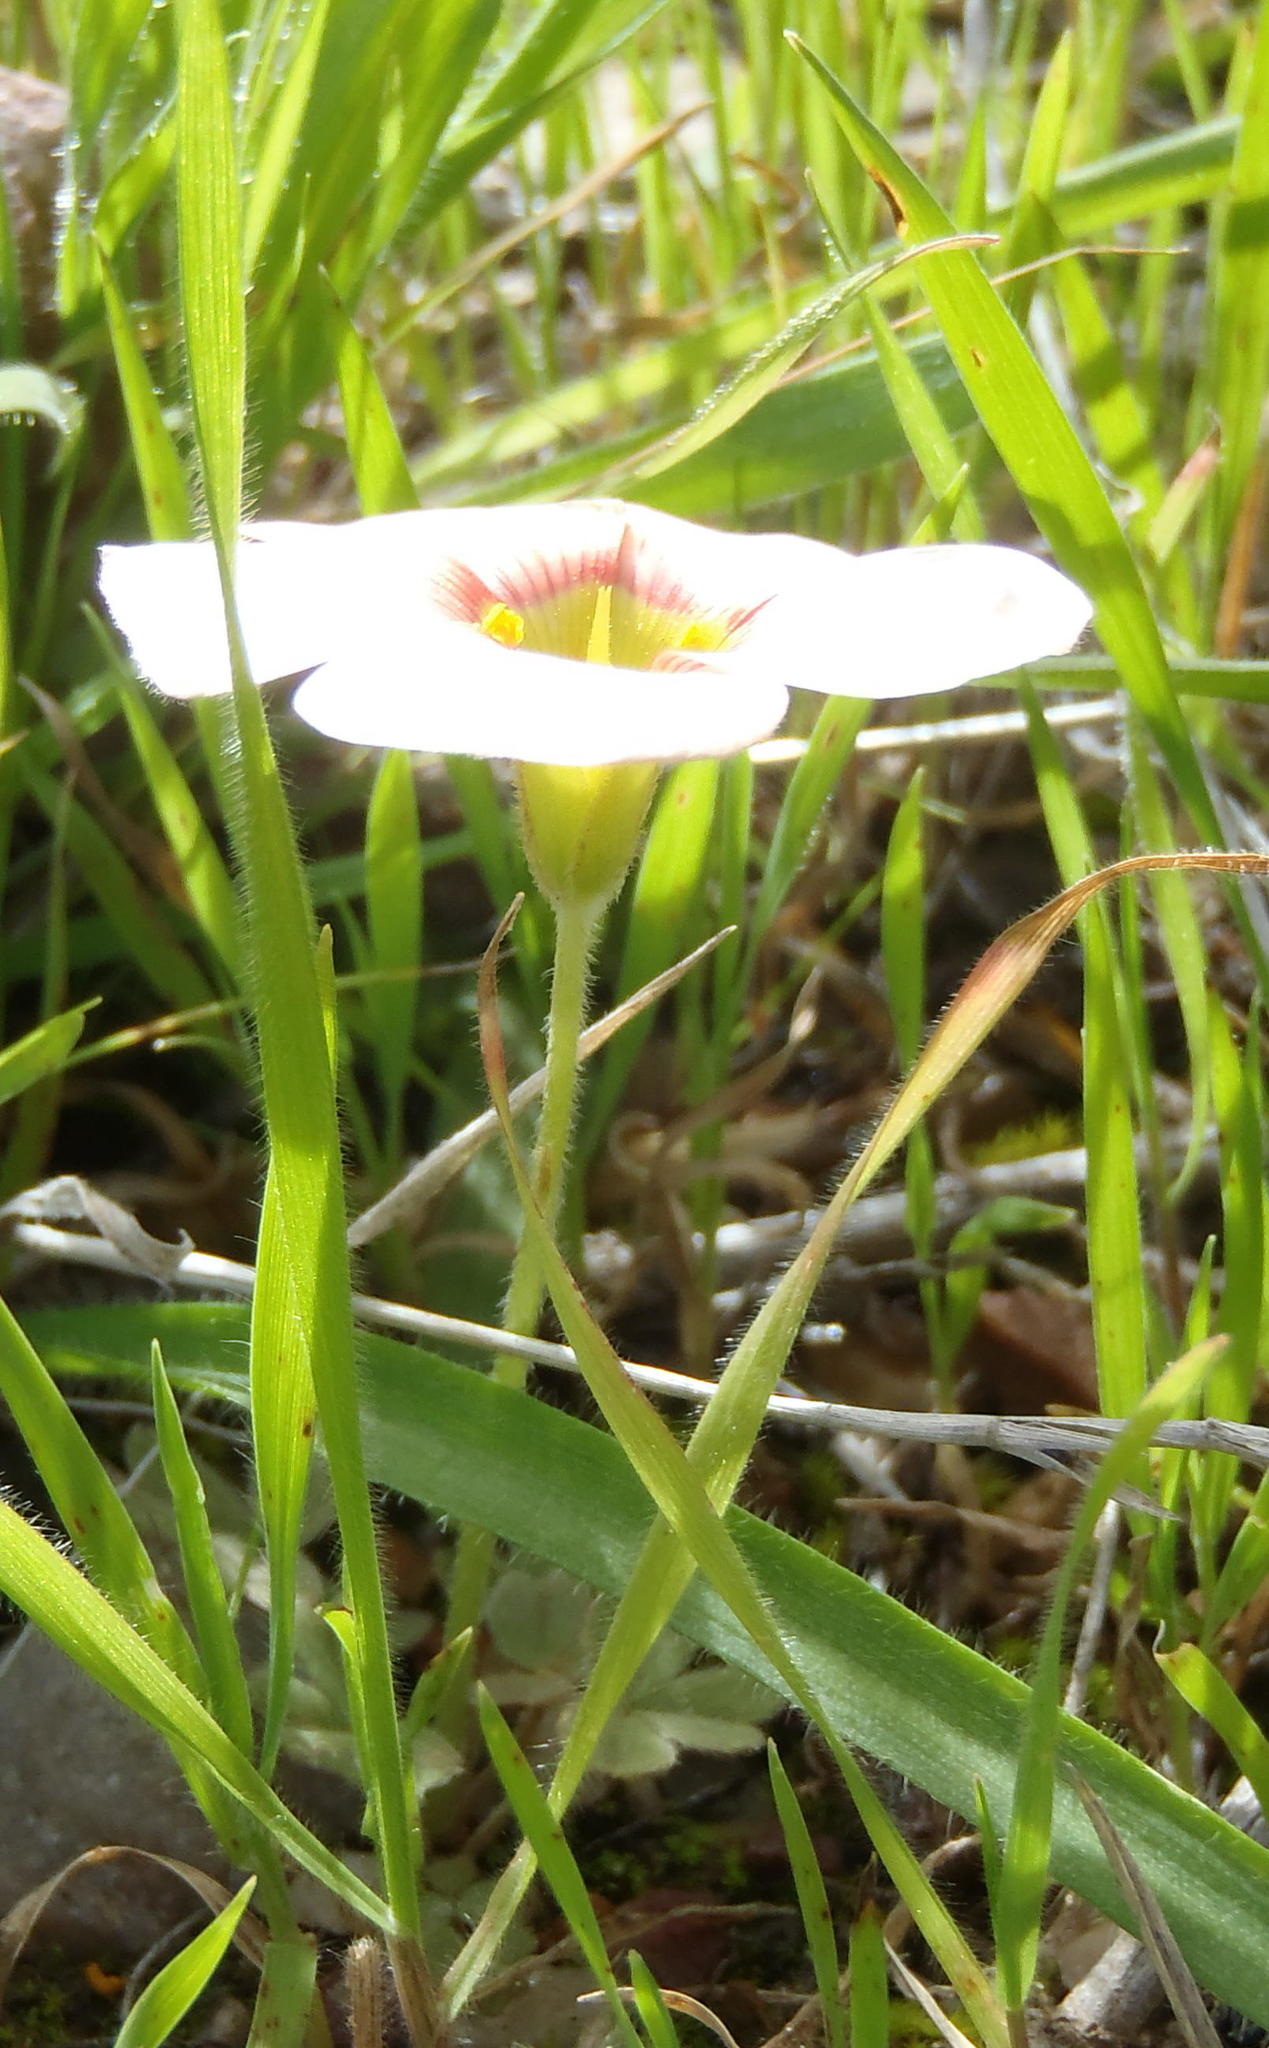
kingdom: Plantae
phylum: Tracheophyta
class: Magnoliopsida
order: Oxalidales
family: Oxalidaceae
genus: Oxalis
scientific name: Oxalis obtusa
